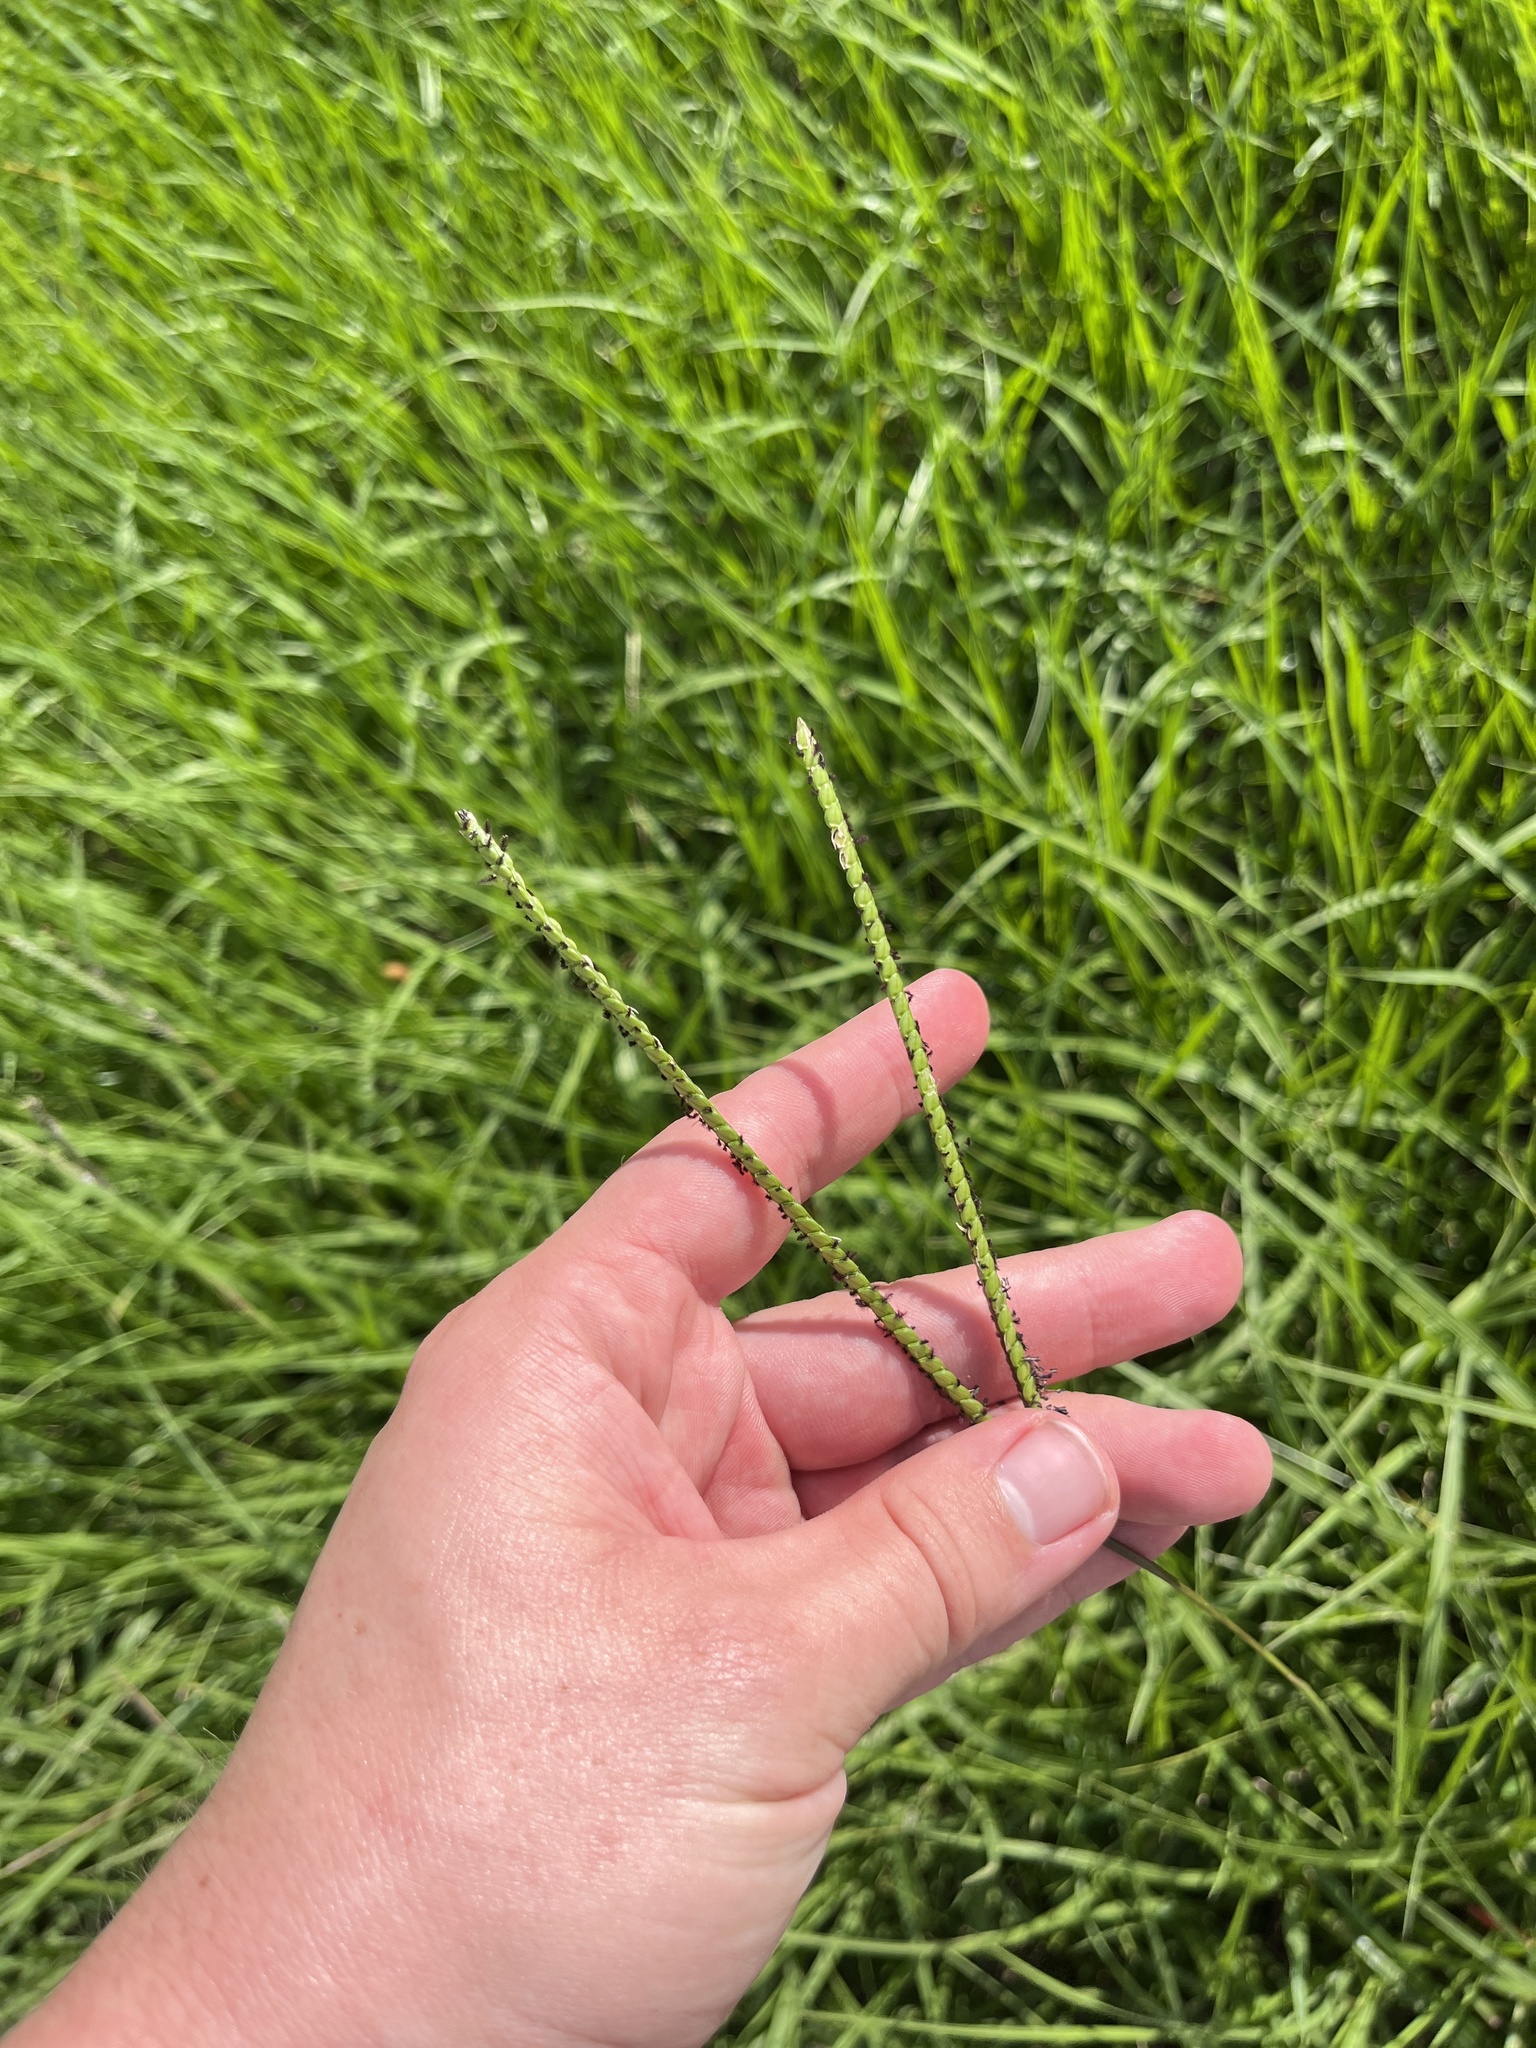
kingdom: Plantae
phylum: Tracheophyta
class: Liliopsida
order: Poales
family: Poaceae
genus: Paspalum
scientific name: Paspalum notatum
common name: Bahiagrass
